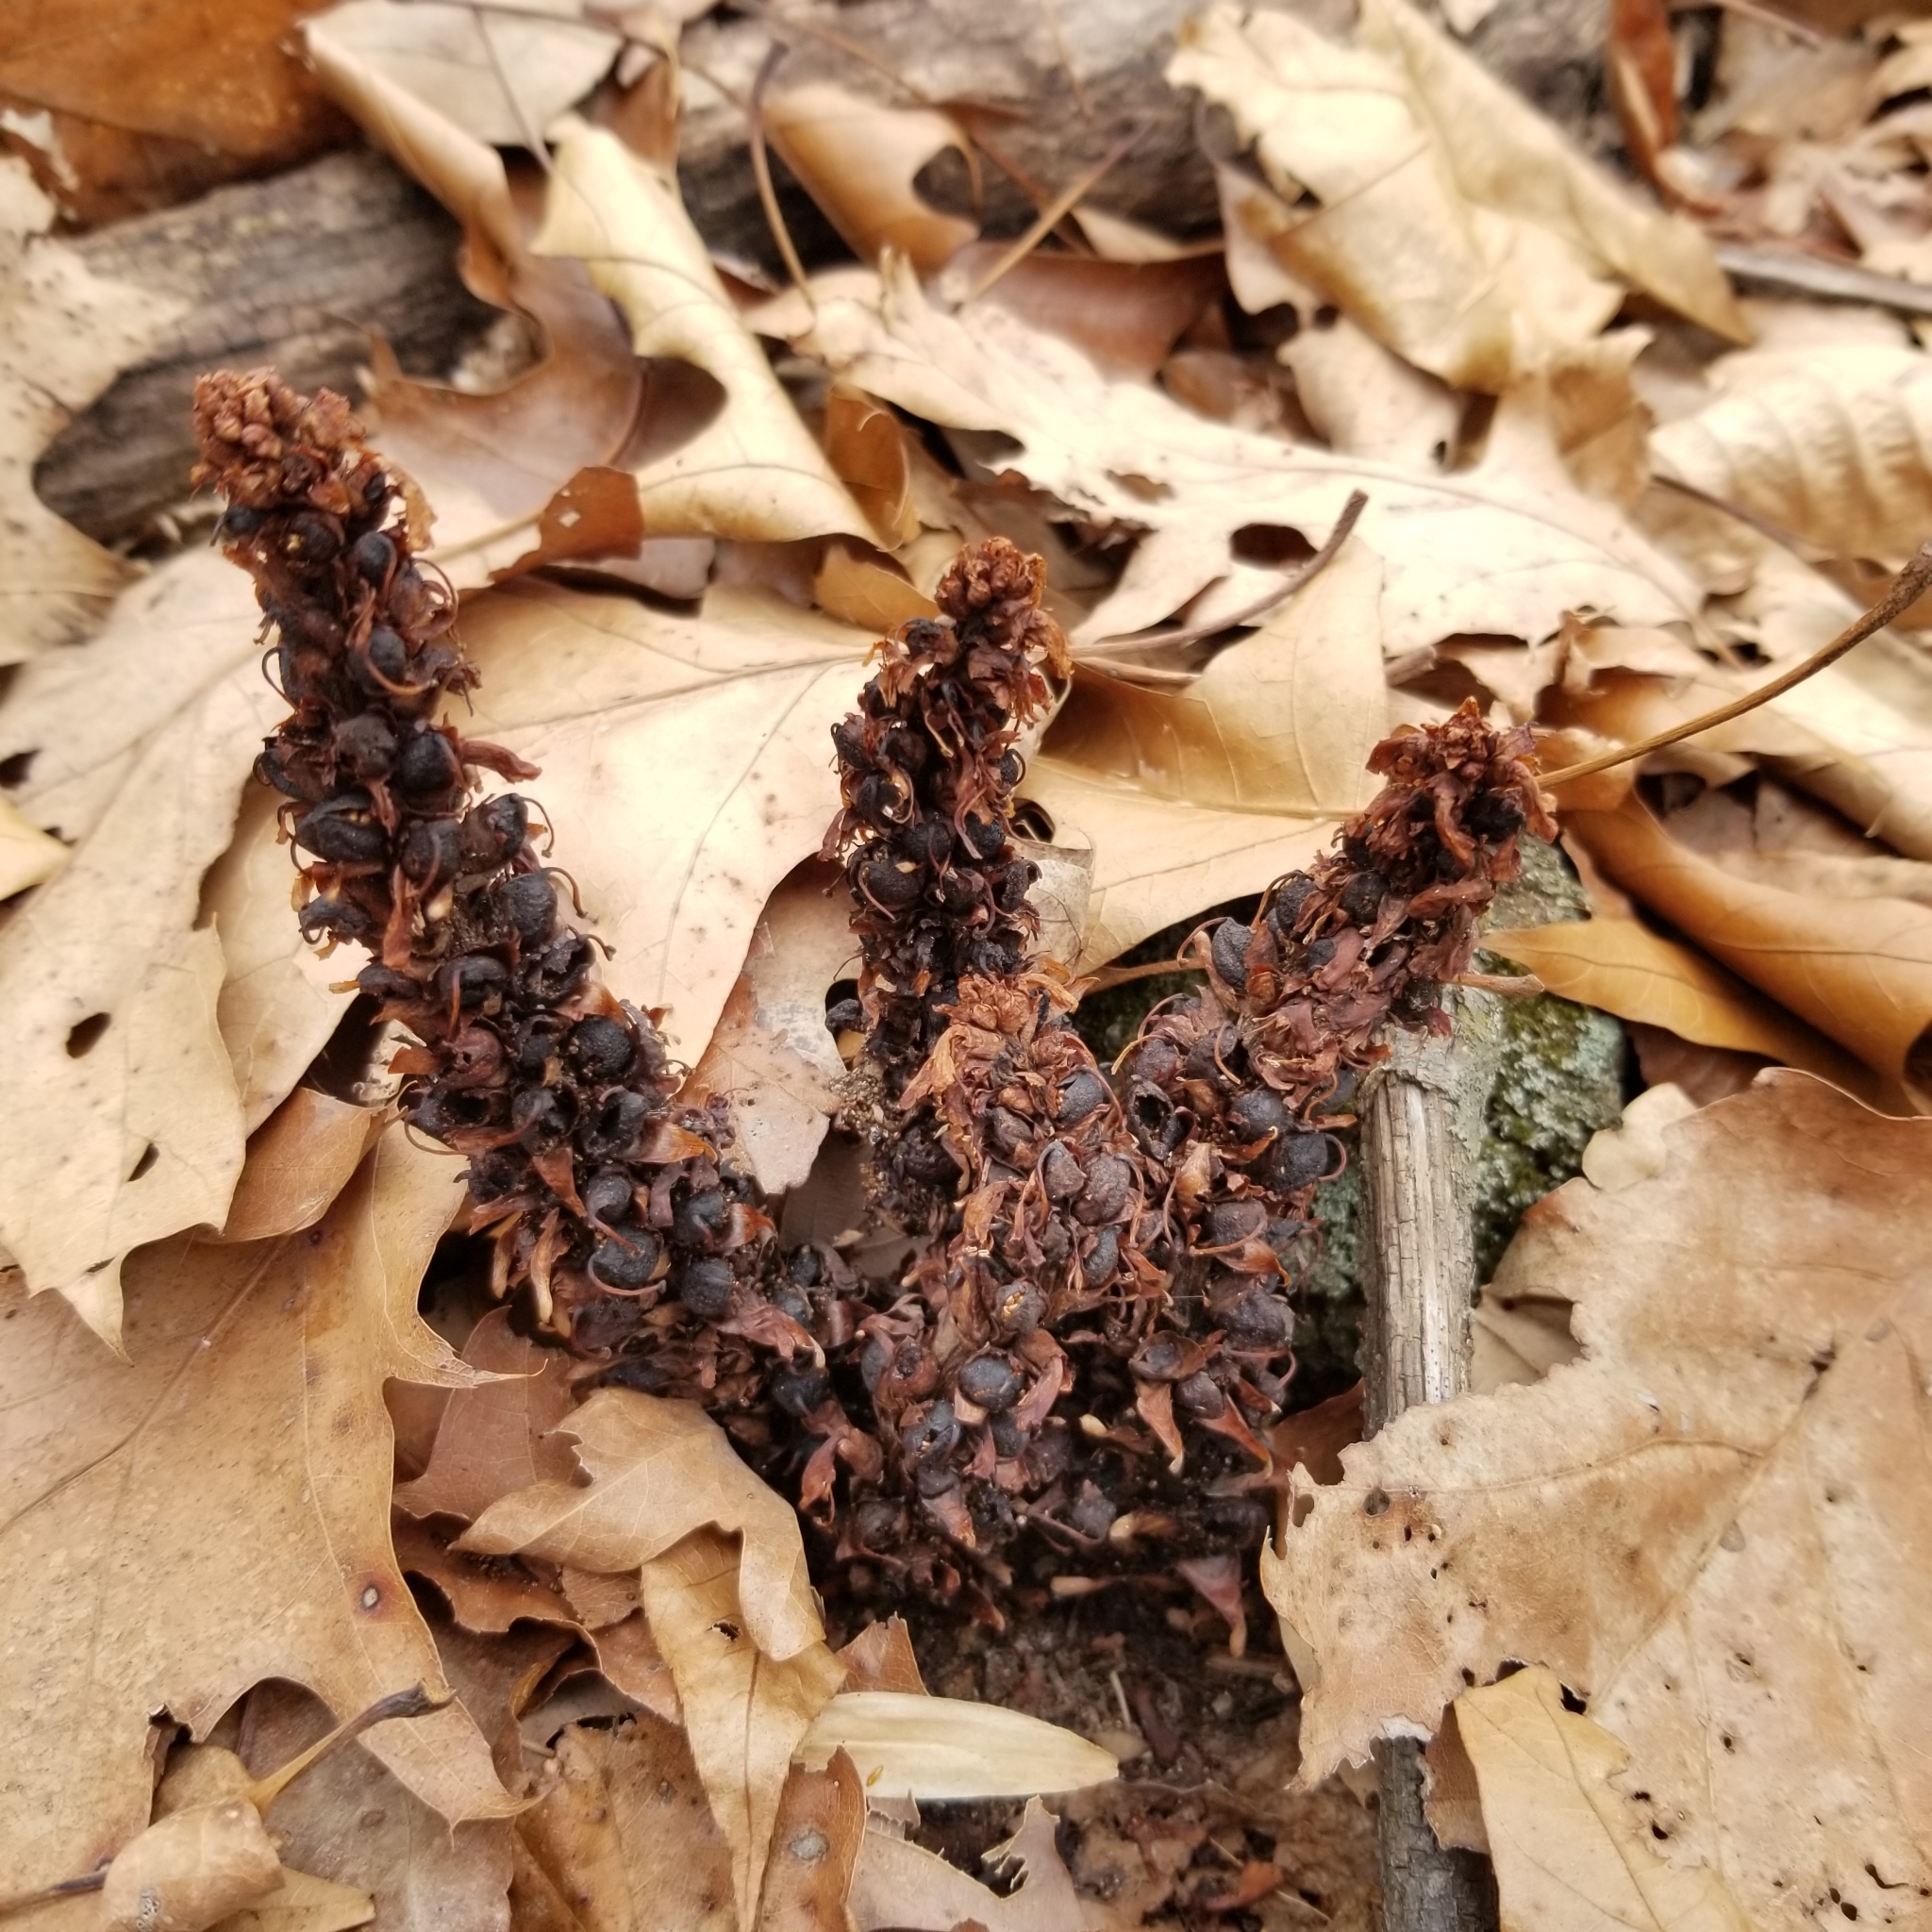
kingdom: Plantae
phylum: Tracheophyta
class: Magnoliopsida
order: Lamiales
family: Orobanchaceae
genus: Conopholis
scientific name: Conopholis americana
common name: American cancer-root
